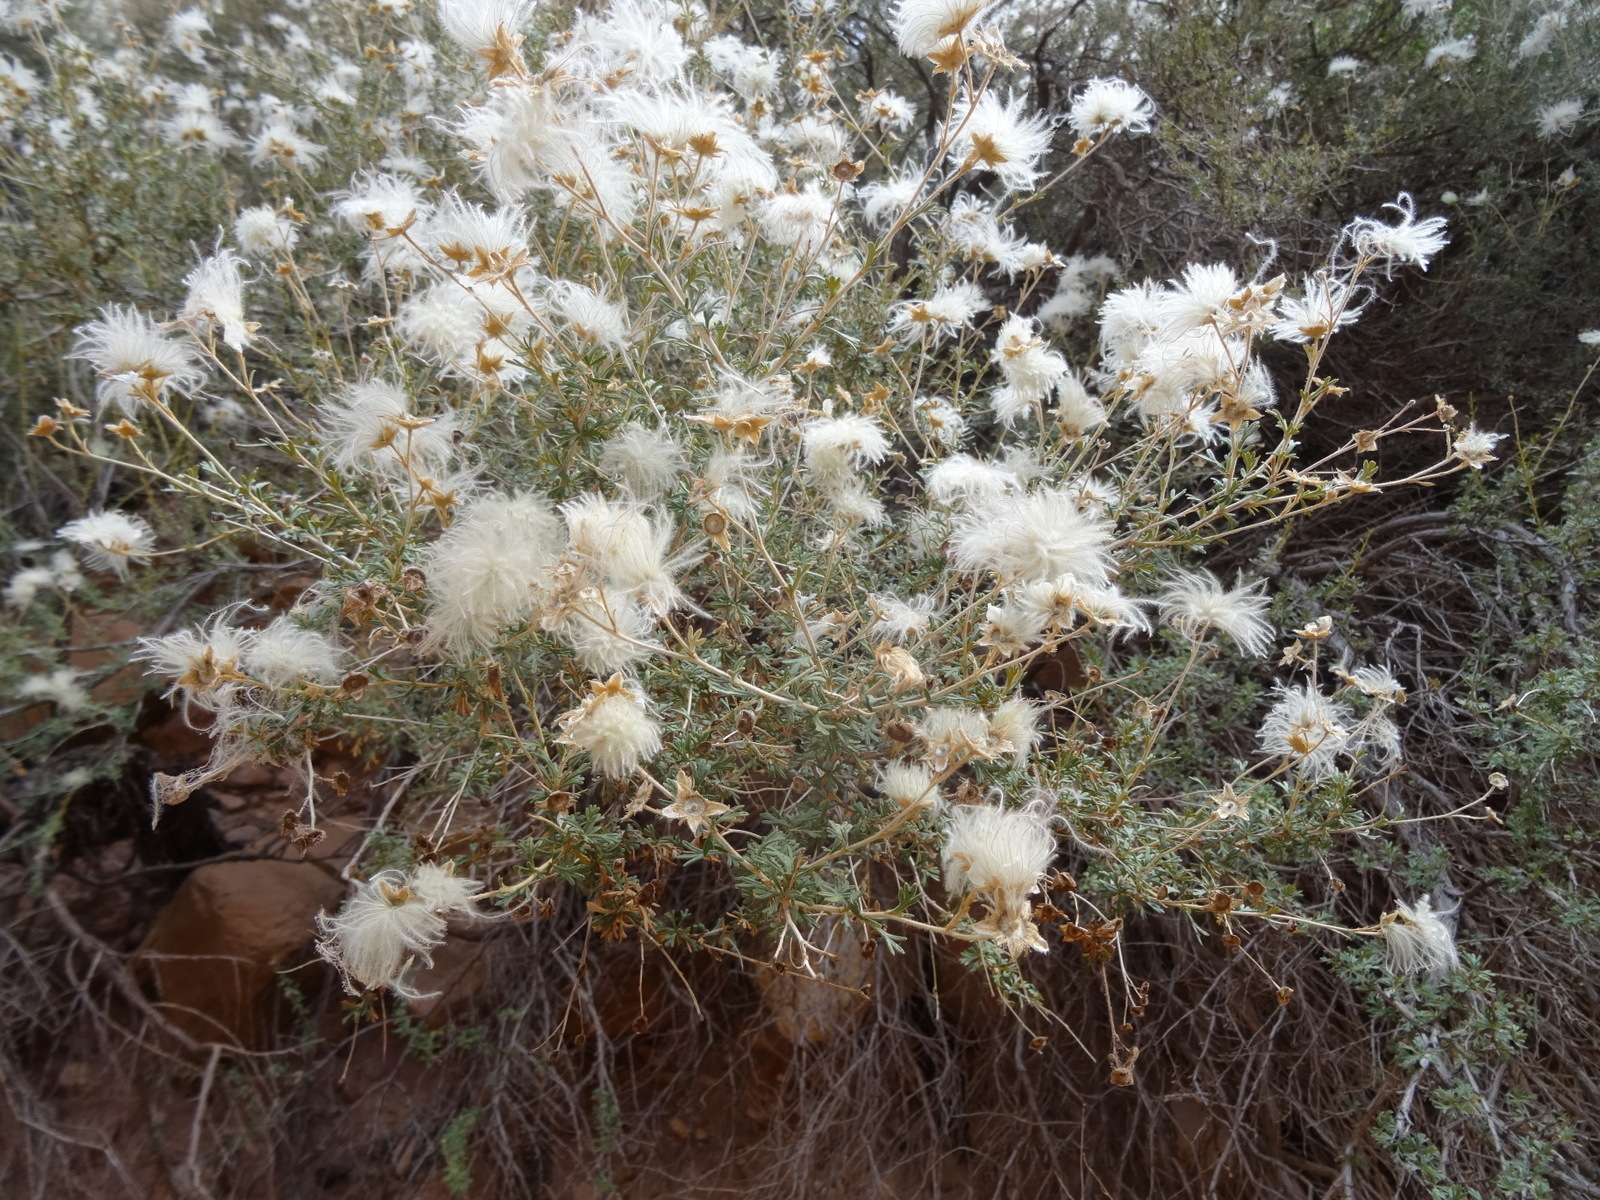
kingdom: Plantae
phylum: Tracheophyta
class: Magnoliopsida
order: Rosales
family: Rosaceae
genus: Fallugia
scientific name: Fallugia paradoxa
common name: Apache-plume
